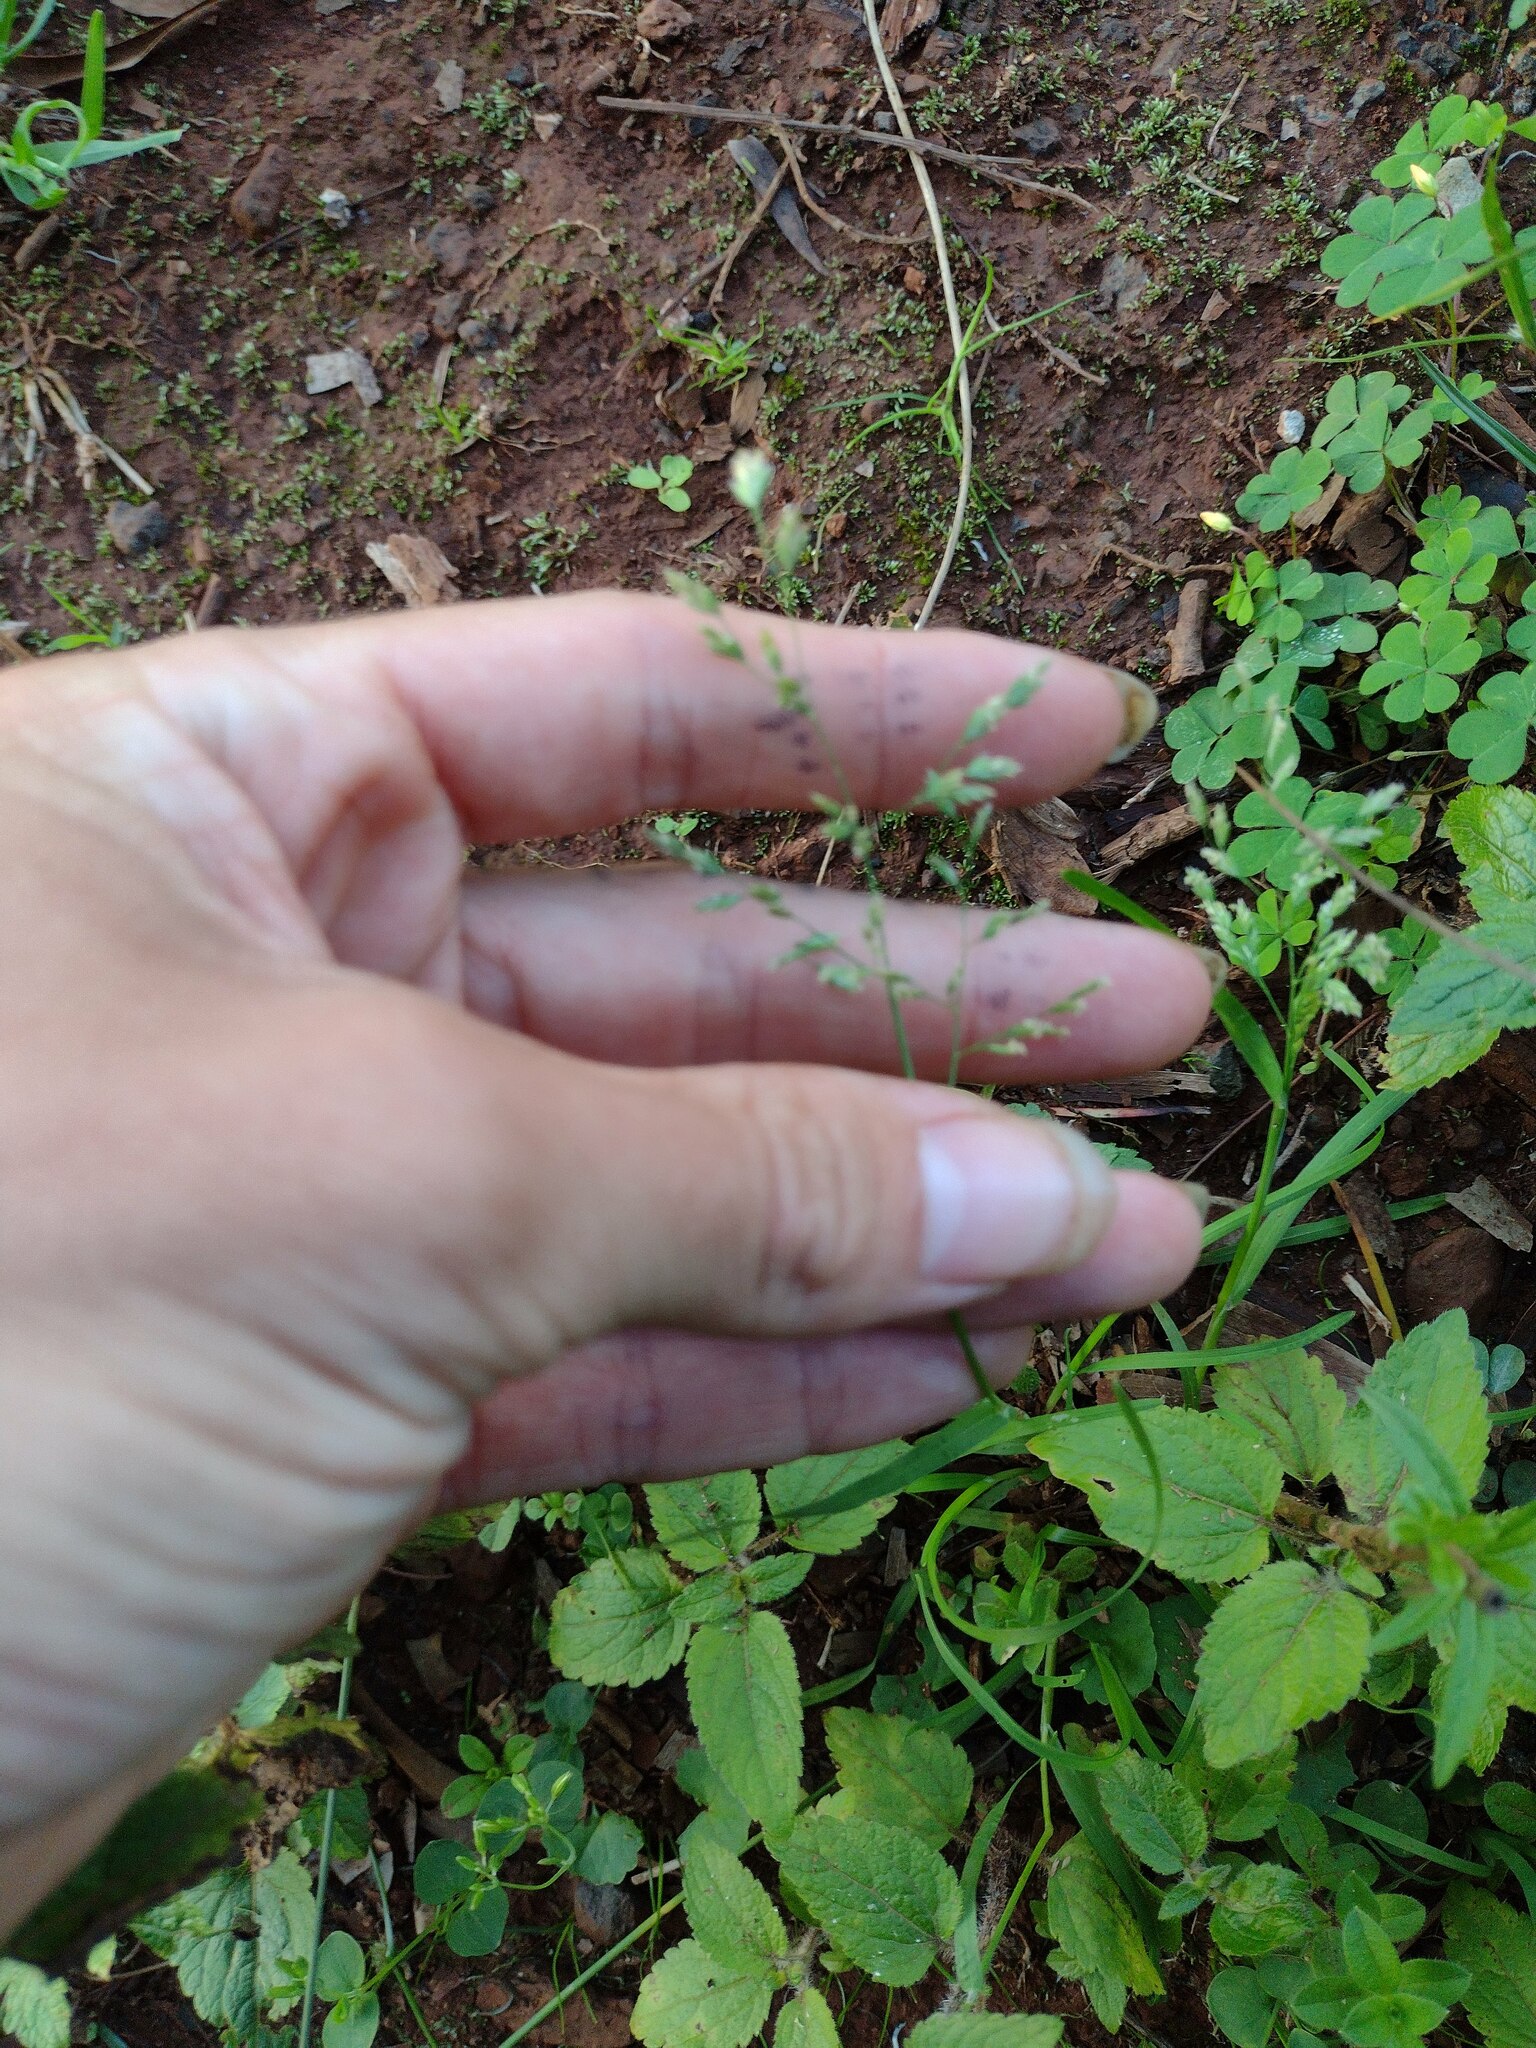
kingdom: Plantae
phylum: Tracheophyta
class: Liliopsida
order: Poales
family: Poaceae
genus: Poa
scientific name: Poa annua
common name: Annual bluegrass
